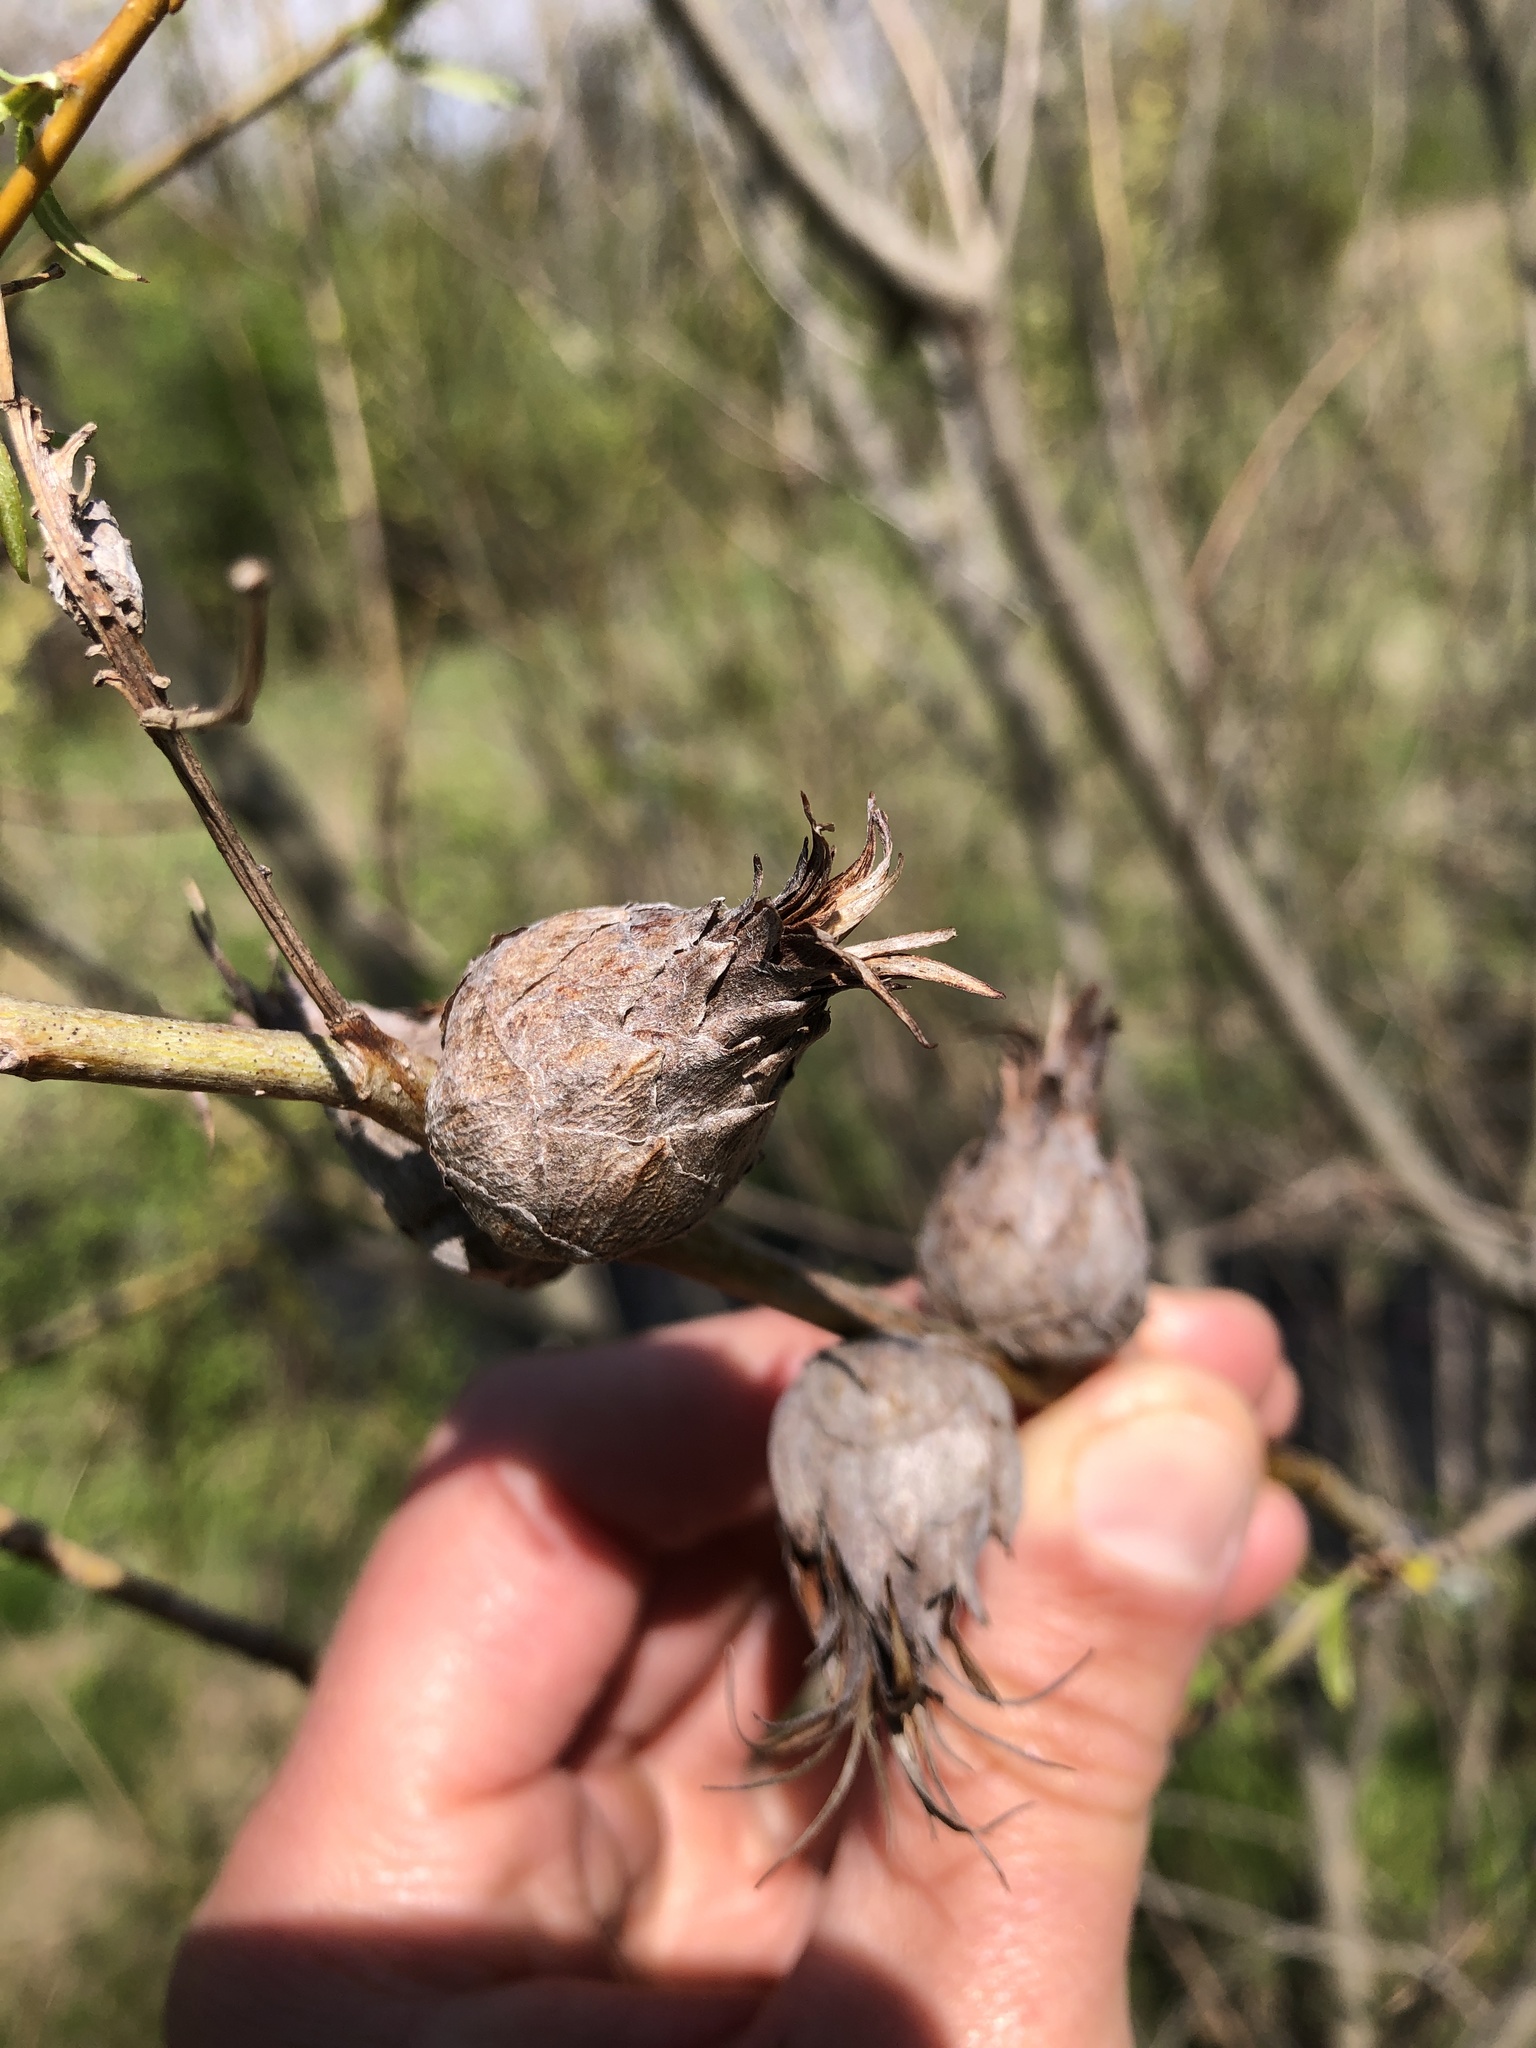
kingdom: Animalia
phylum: Arthropoda
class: Insecta
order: Diptera
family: Cecidomyiidae
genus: Rabdophaga
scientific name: Rabdophaga strobiloides
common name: Willow pinecone gall midge
